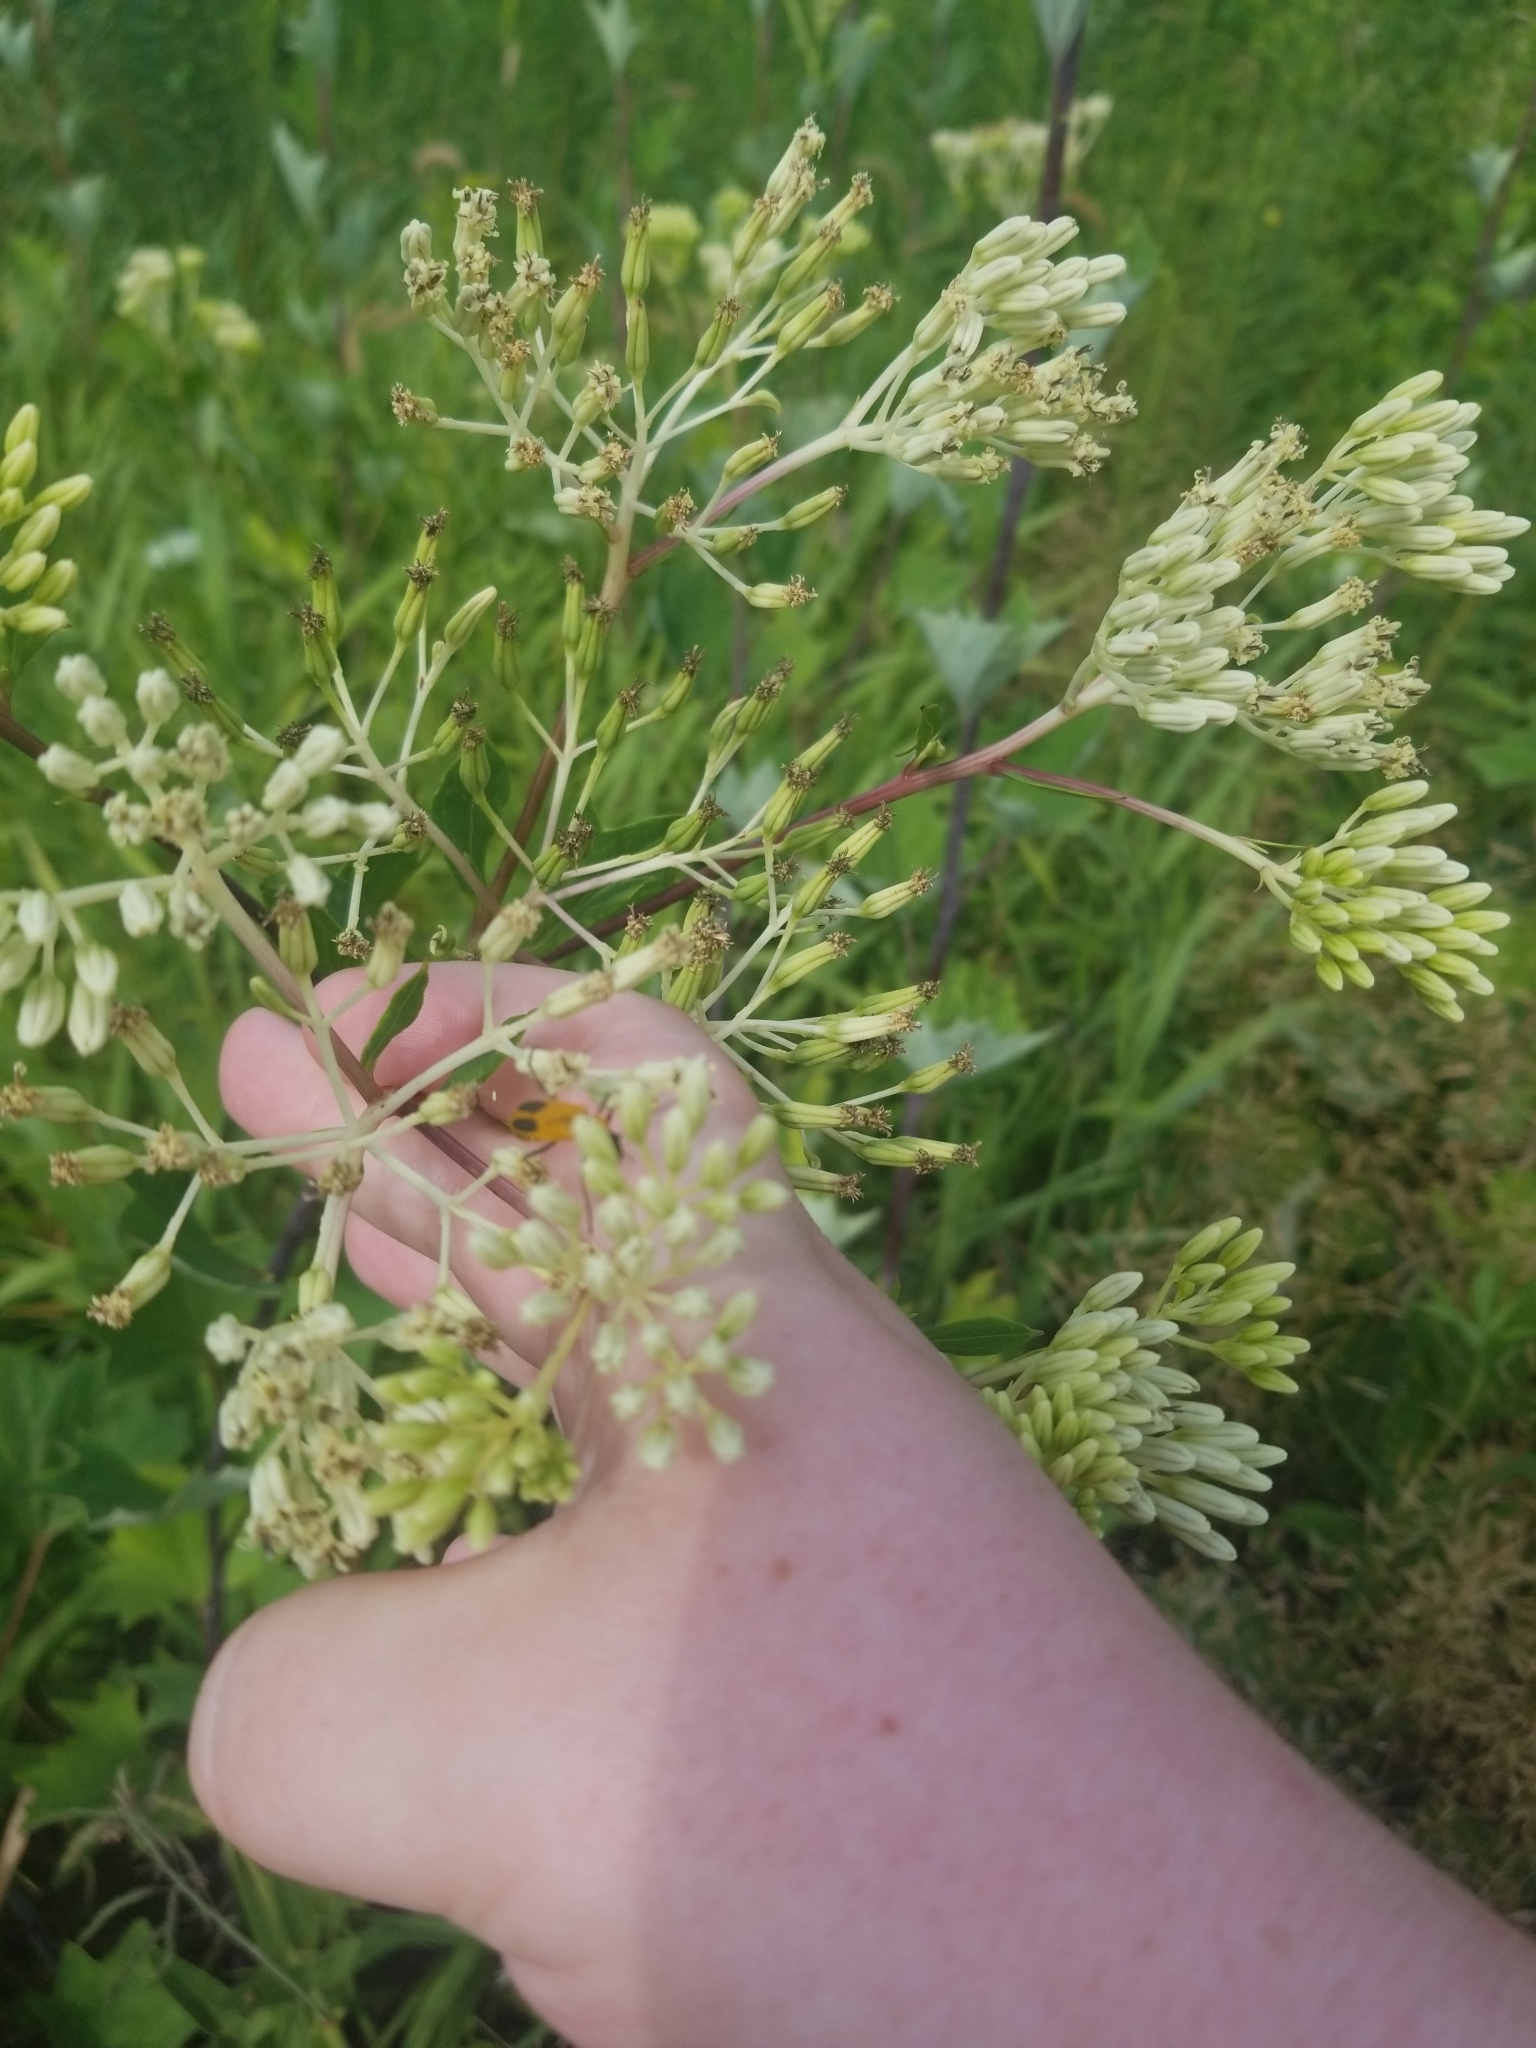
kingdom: Plantae
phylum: Tracheophyta
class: Magnoliopsida
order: Asterales
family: Asteraceae
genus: Arnoglossum
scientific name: Arnoglossum atriplicifolium
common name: Pale indian-plantain
